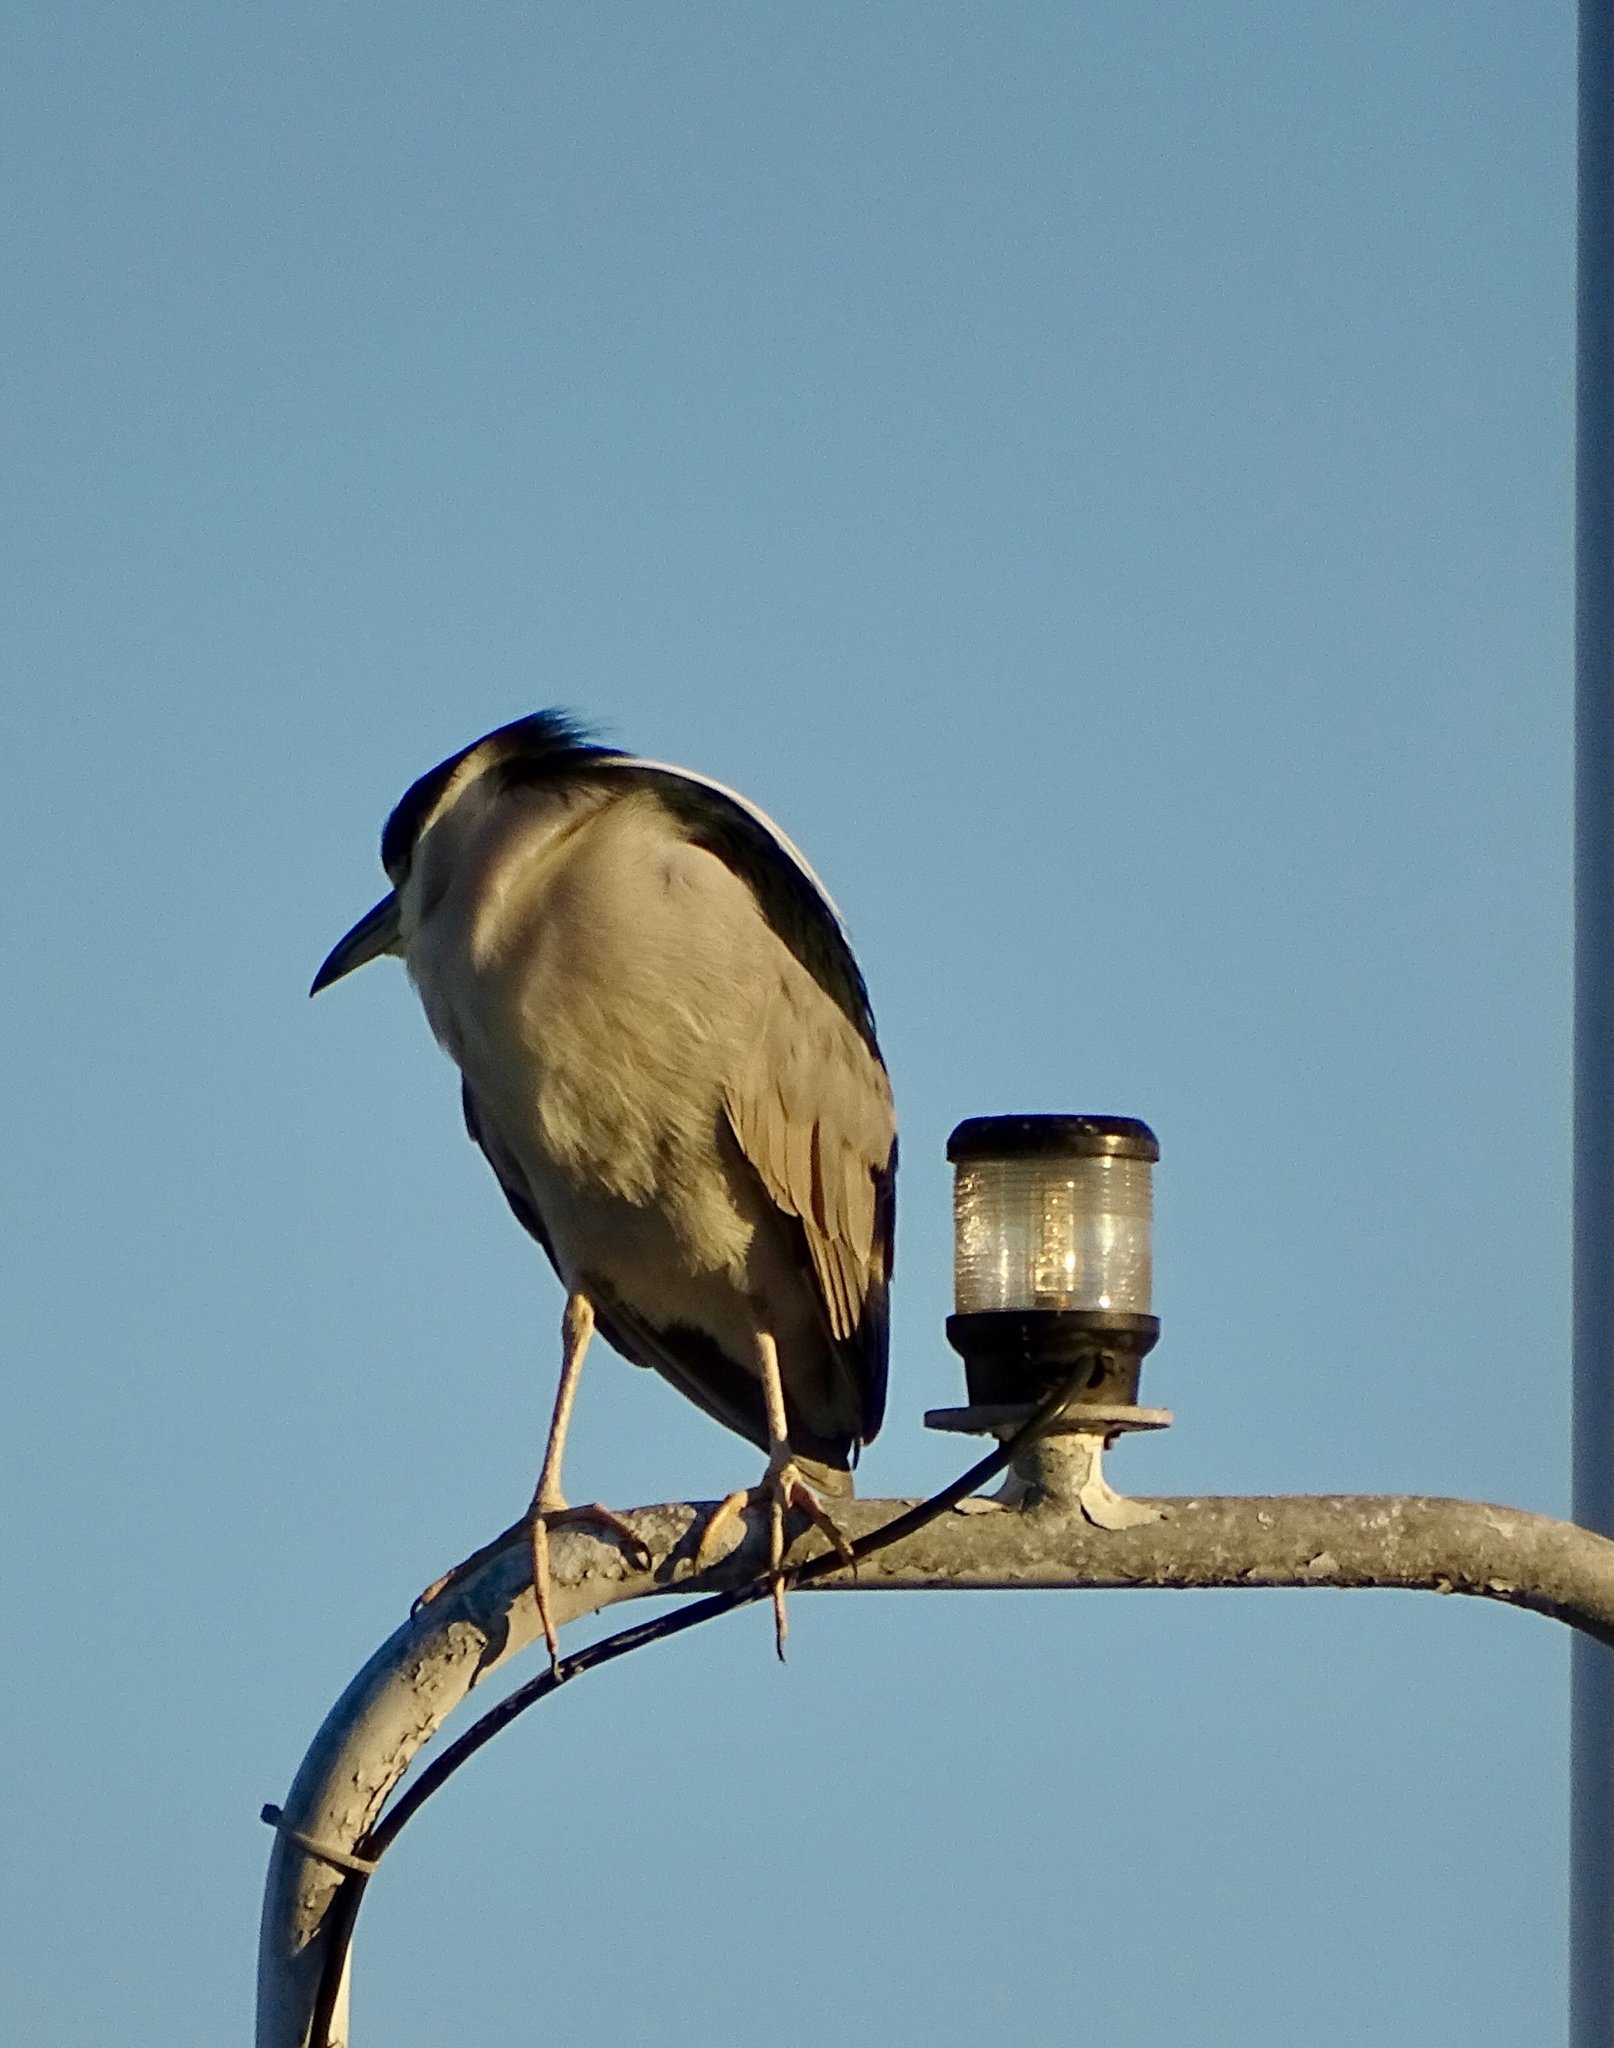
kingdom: Animalia
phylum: Chordata
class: Aves
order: Pelecaniformes
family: Ardeidae
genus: Nycticorax
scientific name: Nycticorax nycticorax
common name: Black-crowned night heron
